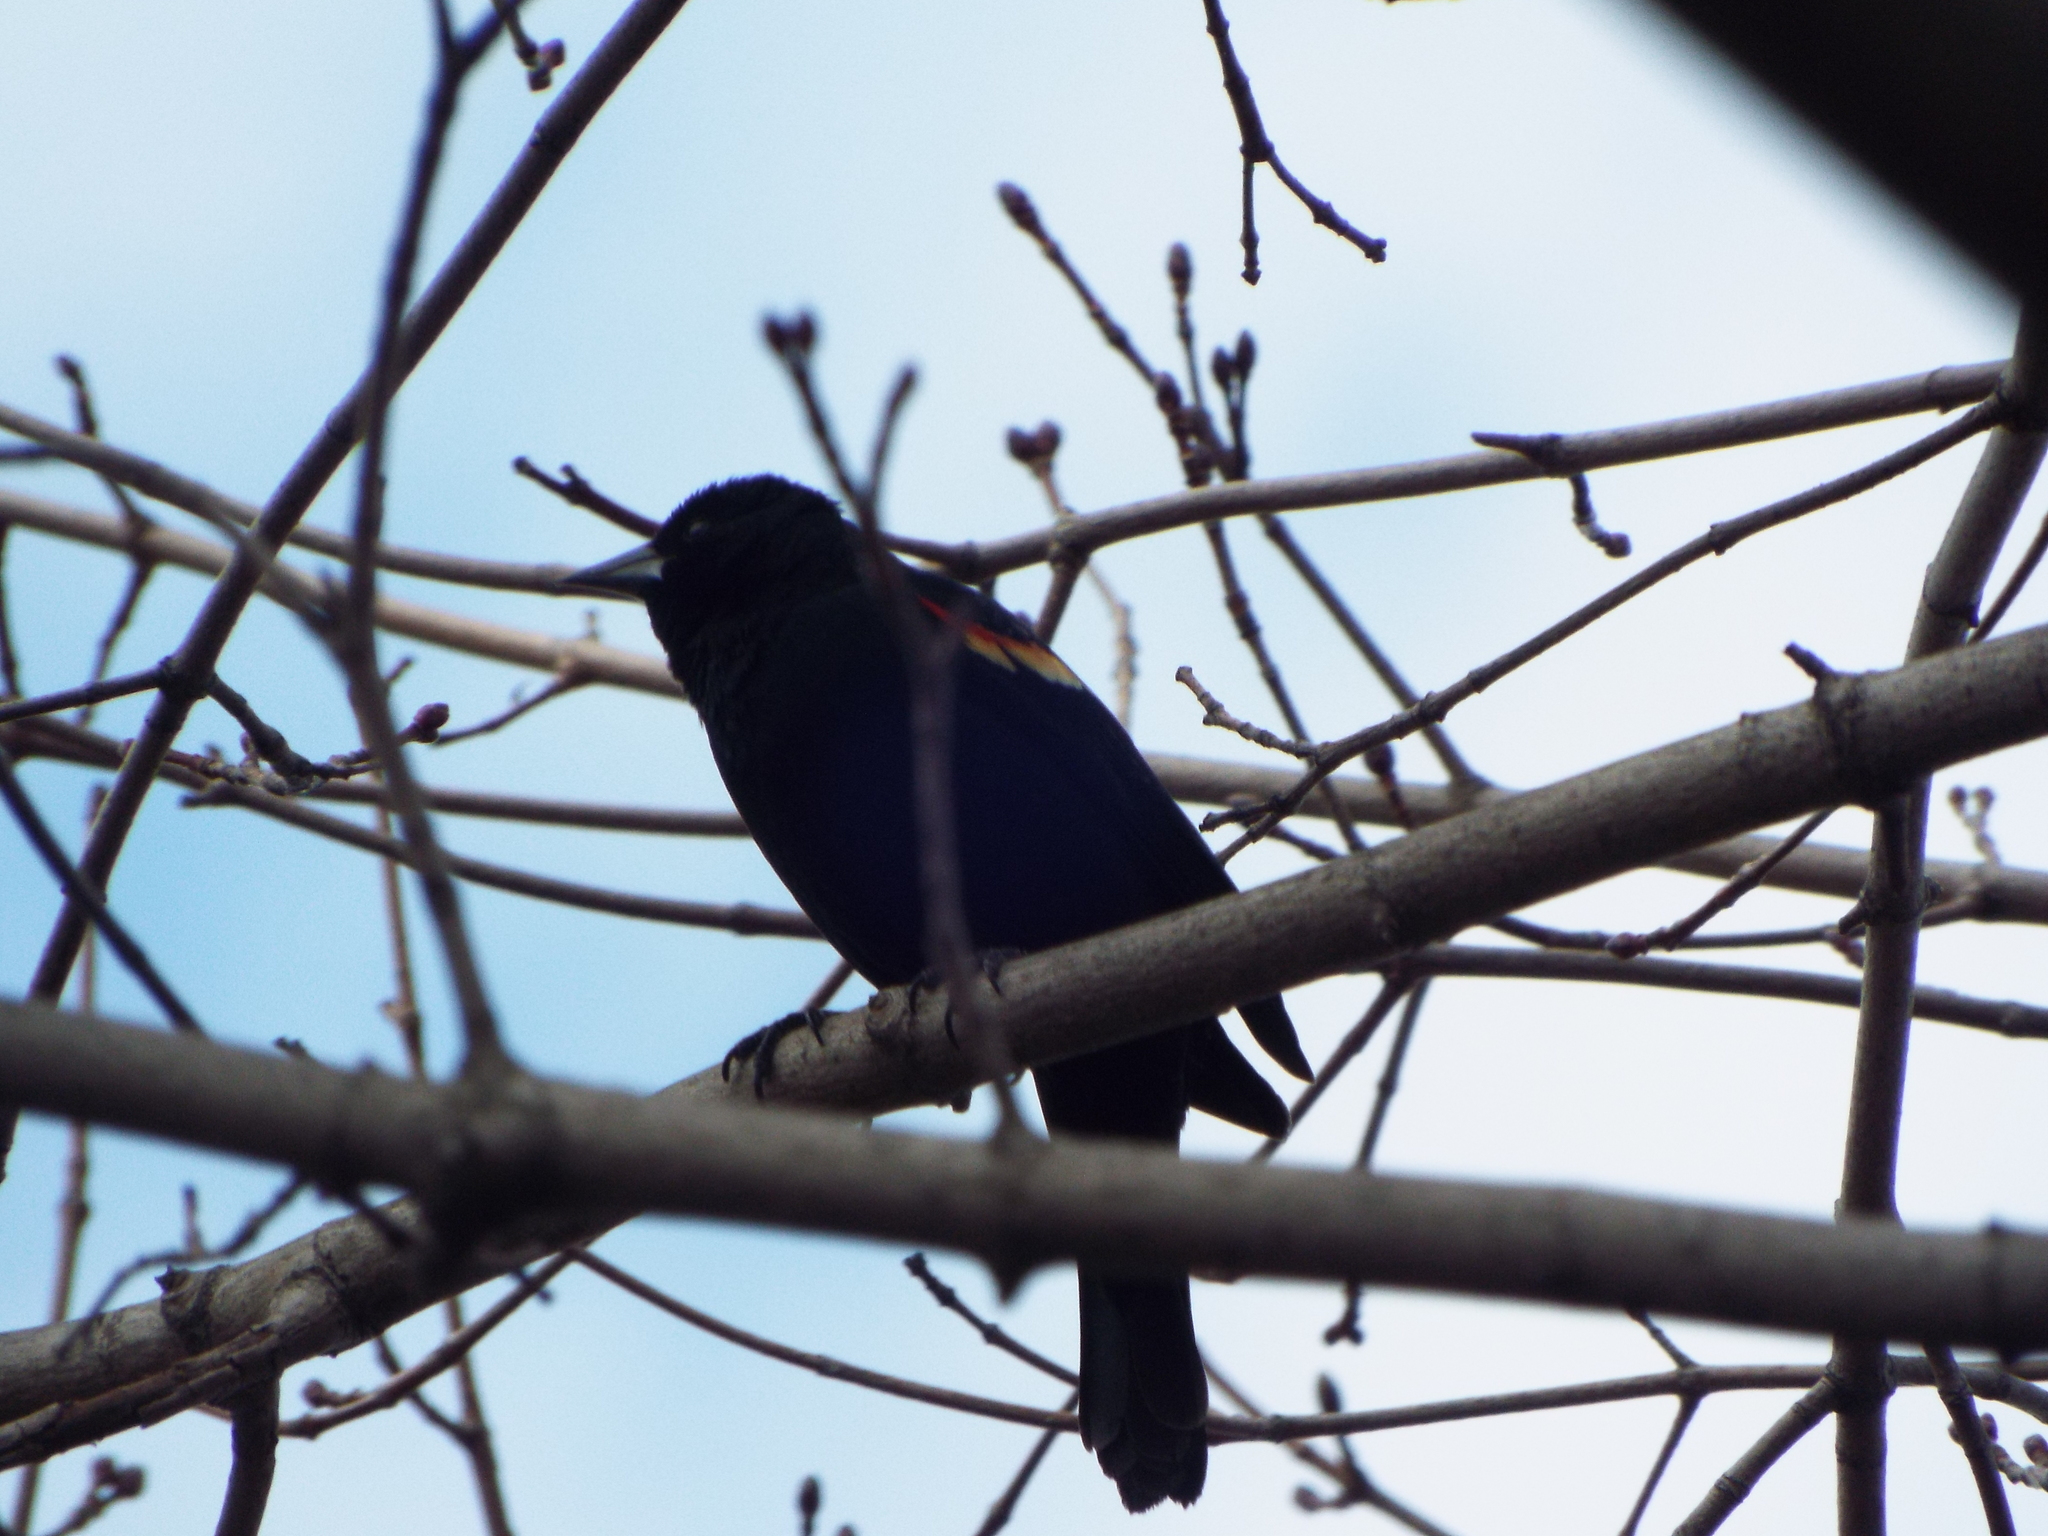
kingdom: Animalia
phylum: Chordata
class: Aves
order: Passeriformes
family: Icteridae
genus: Agelaius
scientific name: Agelaius phoeniceus
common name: Red-winged blackbird
